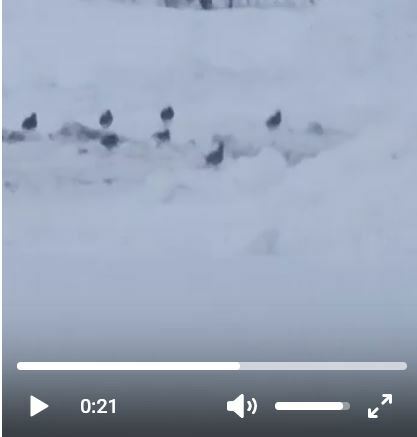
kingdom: Animalia
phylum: Chordata
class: Aves
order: Galliformes
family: Phasianidae
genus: Perdix
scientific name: Perdix perdix
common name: Grey partridge
